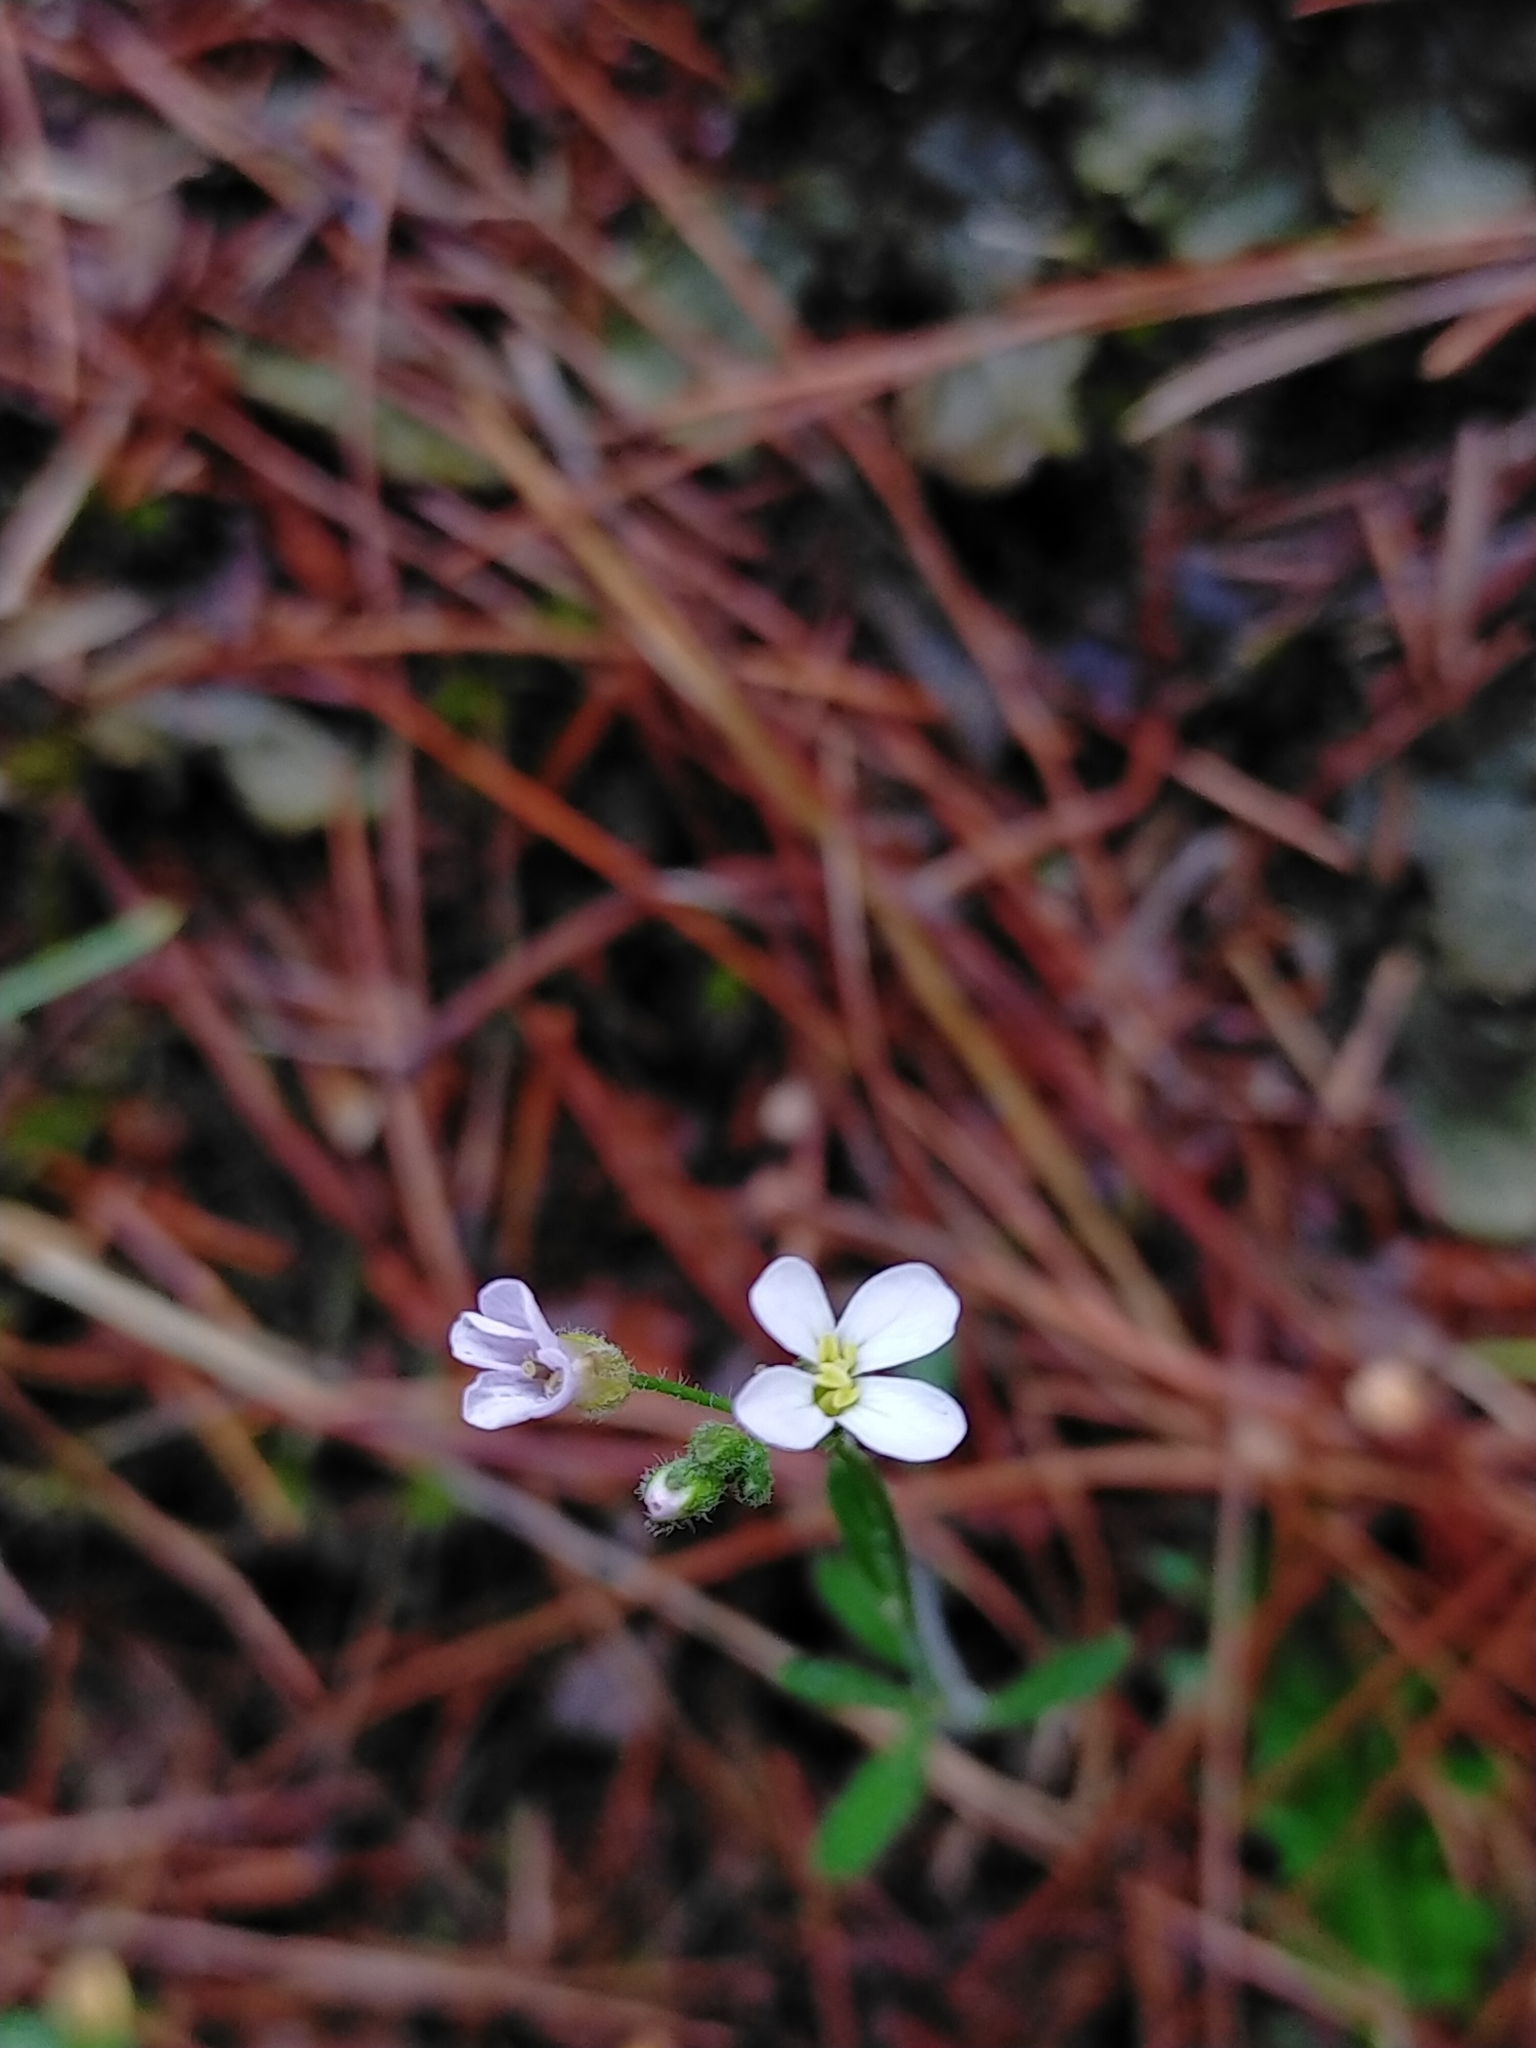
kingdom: Plantae
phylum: Tracheophyta
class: Magnoliopsida
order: Brassicales
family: Brassicaceae
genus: Arabidopsis
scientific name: Arabidopsis lyrata
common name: Lyrate rockcress
